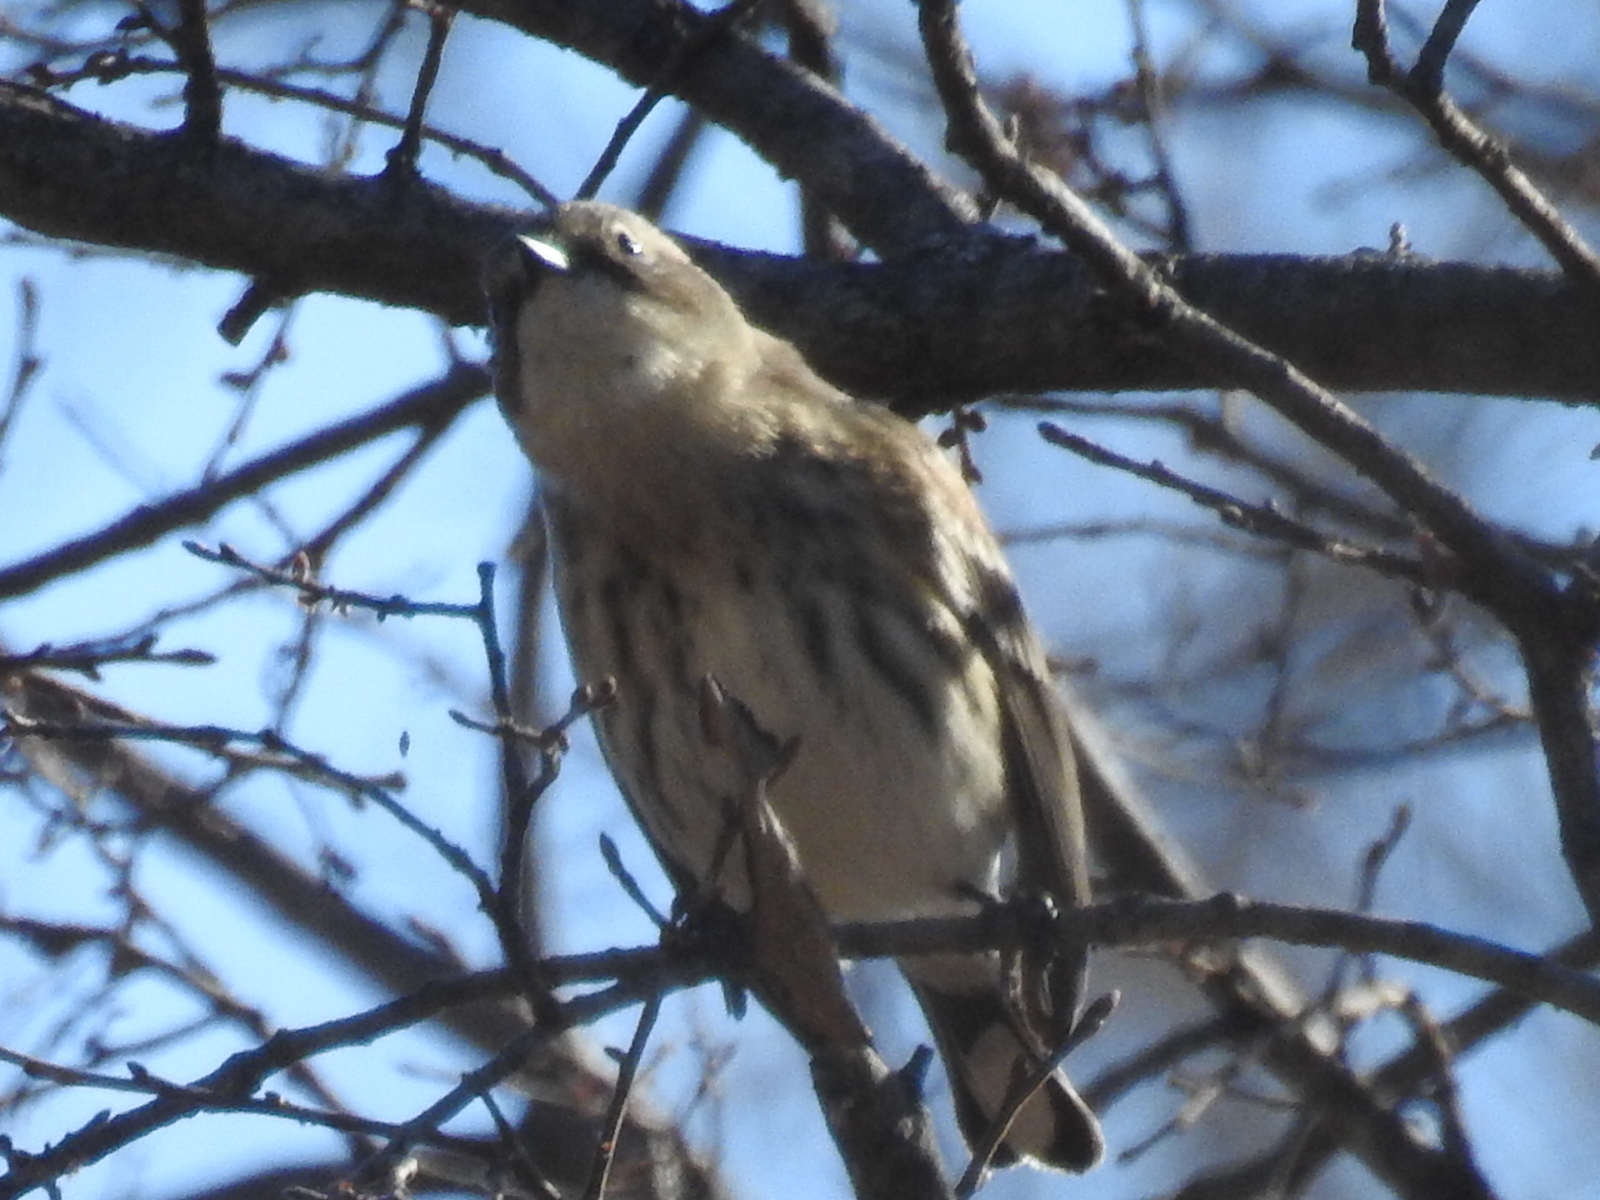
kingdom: Animalia
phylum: Chordata
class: Aves
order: Passeriformes
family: Parulidae
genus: Setophaga
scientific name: Setophaga coronata
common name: Myrtle warbler
